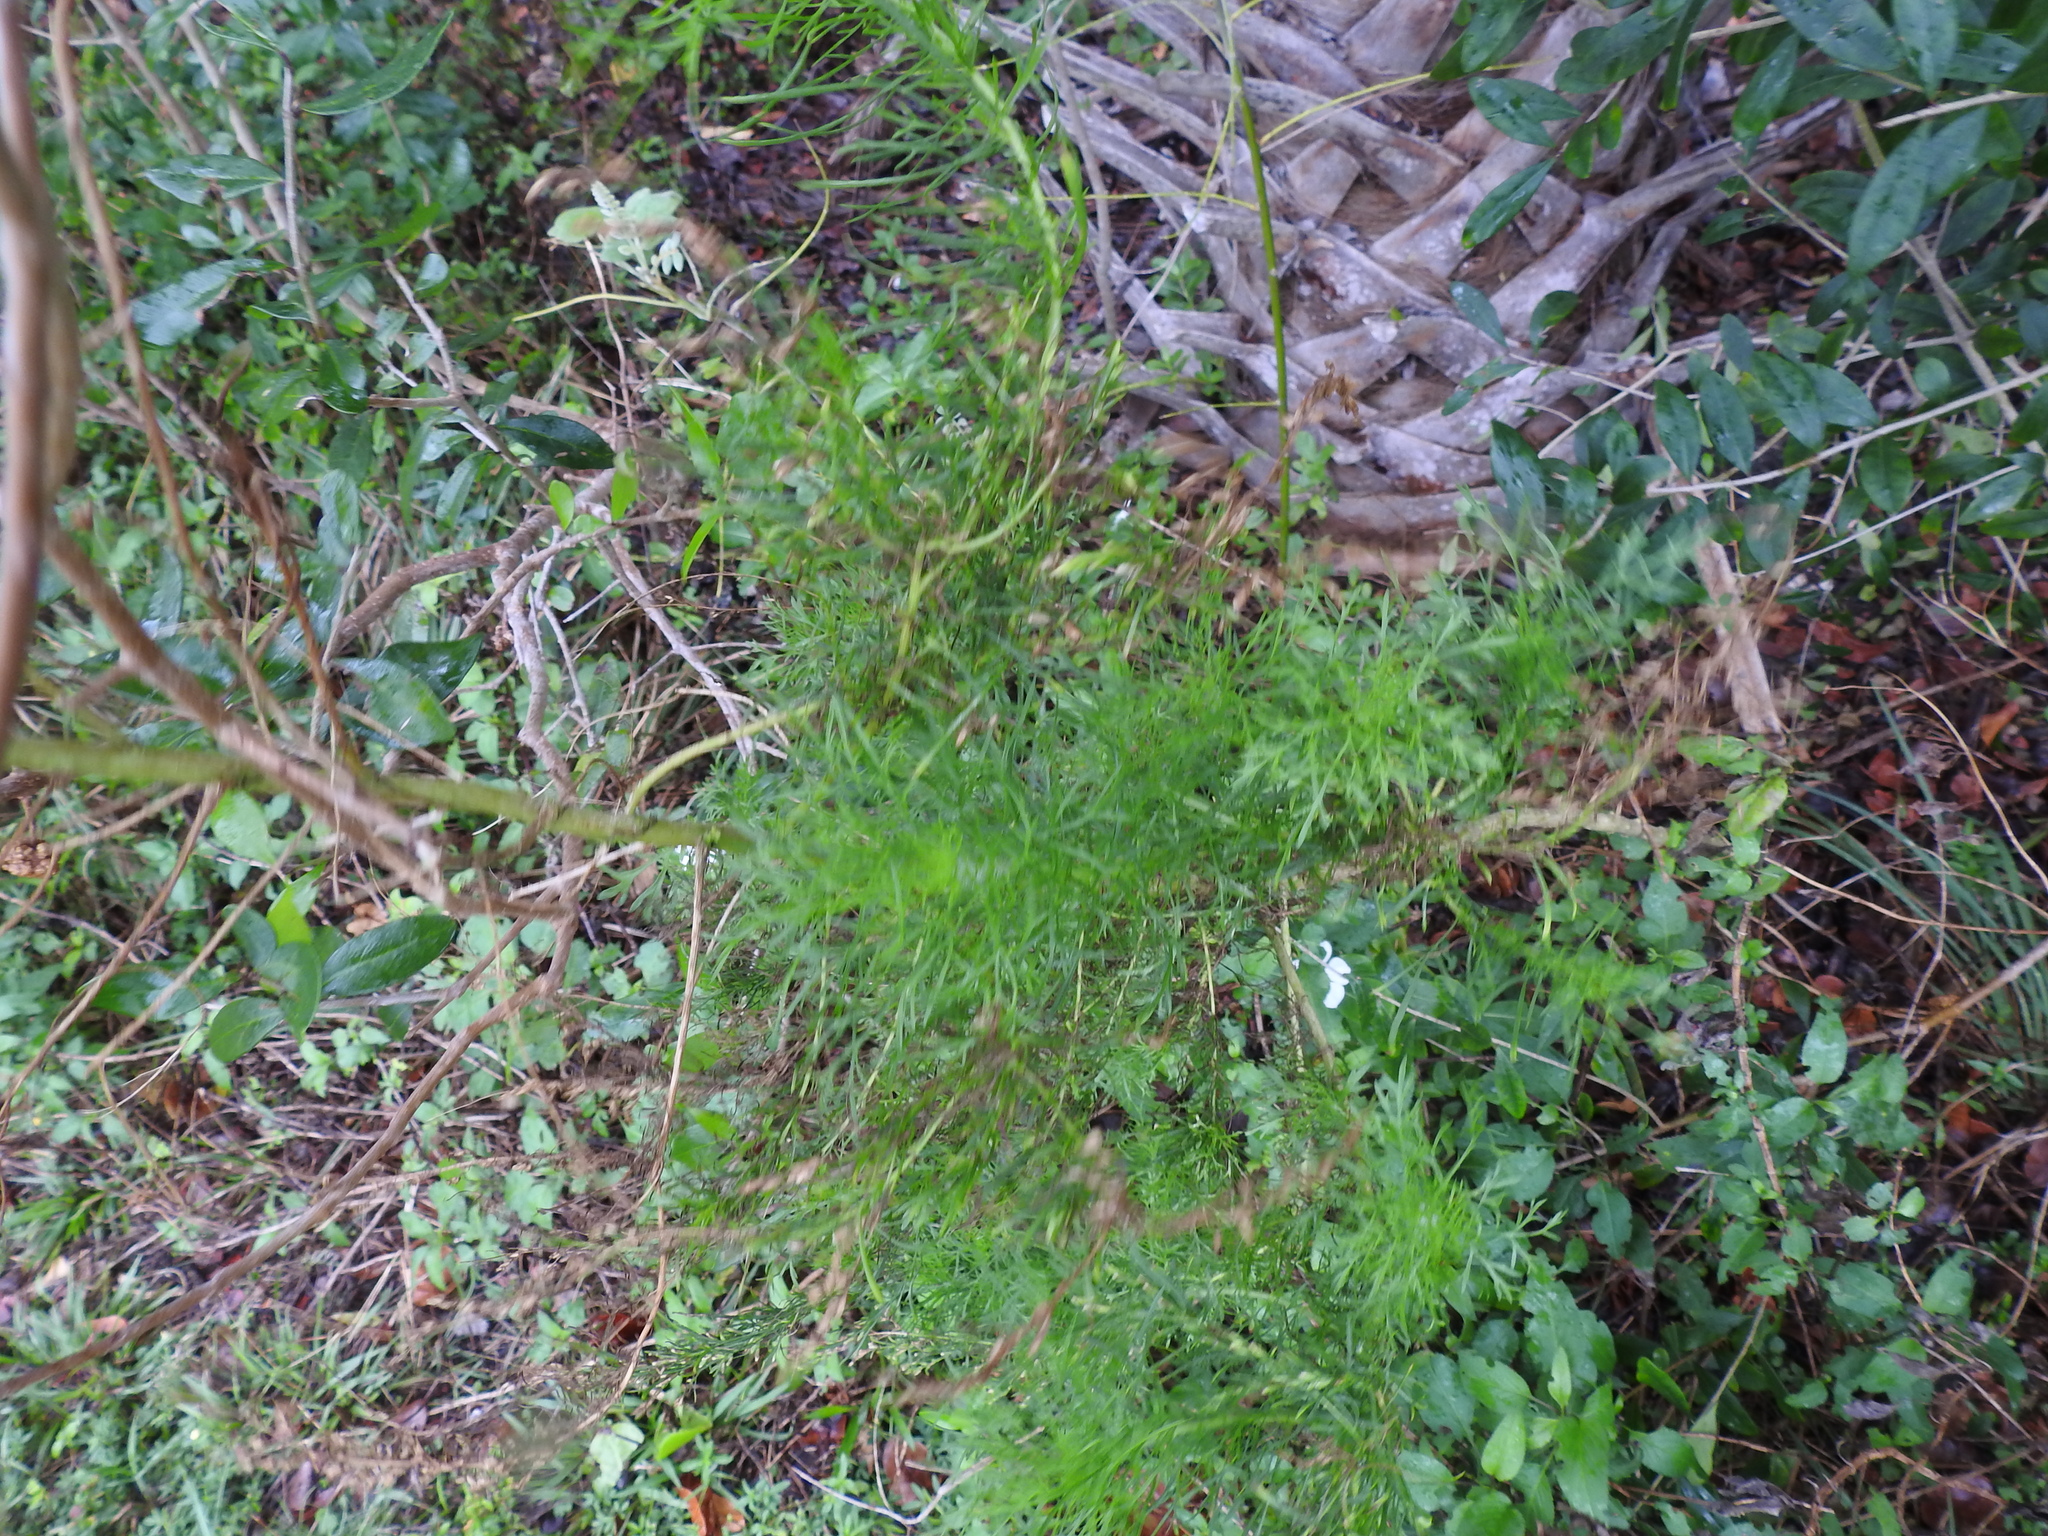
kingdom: Plantae
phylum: Tracheophyta
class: Magnoliopsida
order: Asterales
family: Asteraceae
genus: Eupatorium
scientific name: Eupatorium capillifolium
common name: Dog-fennel
